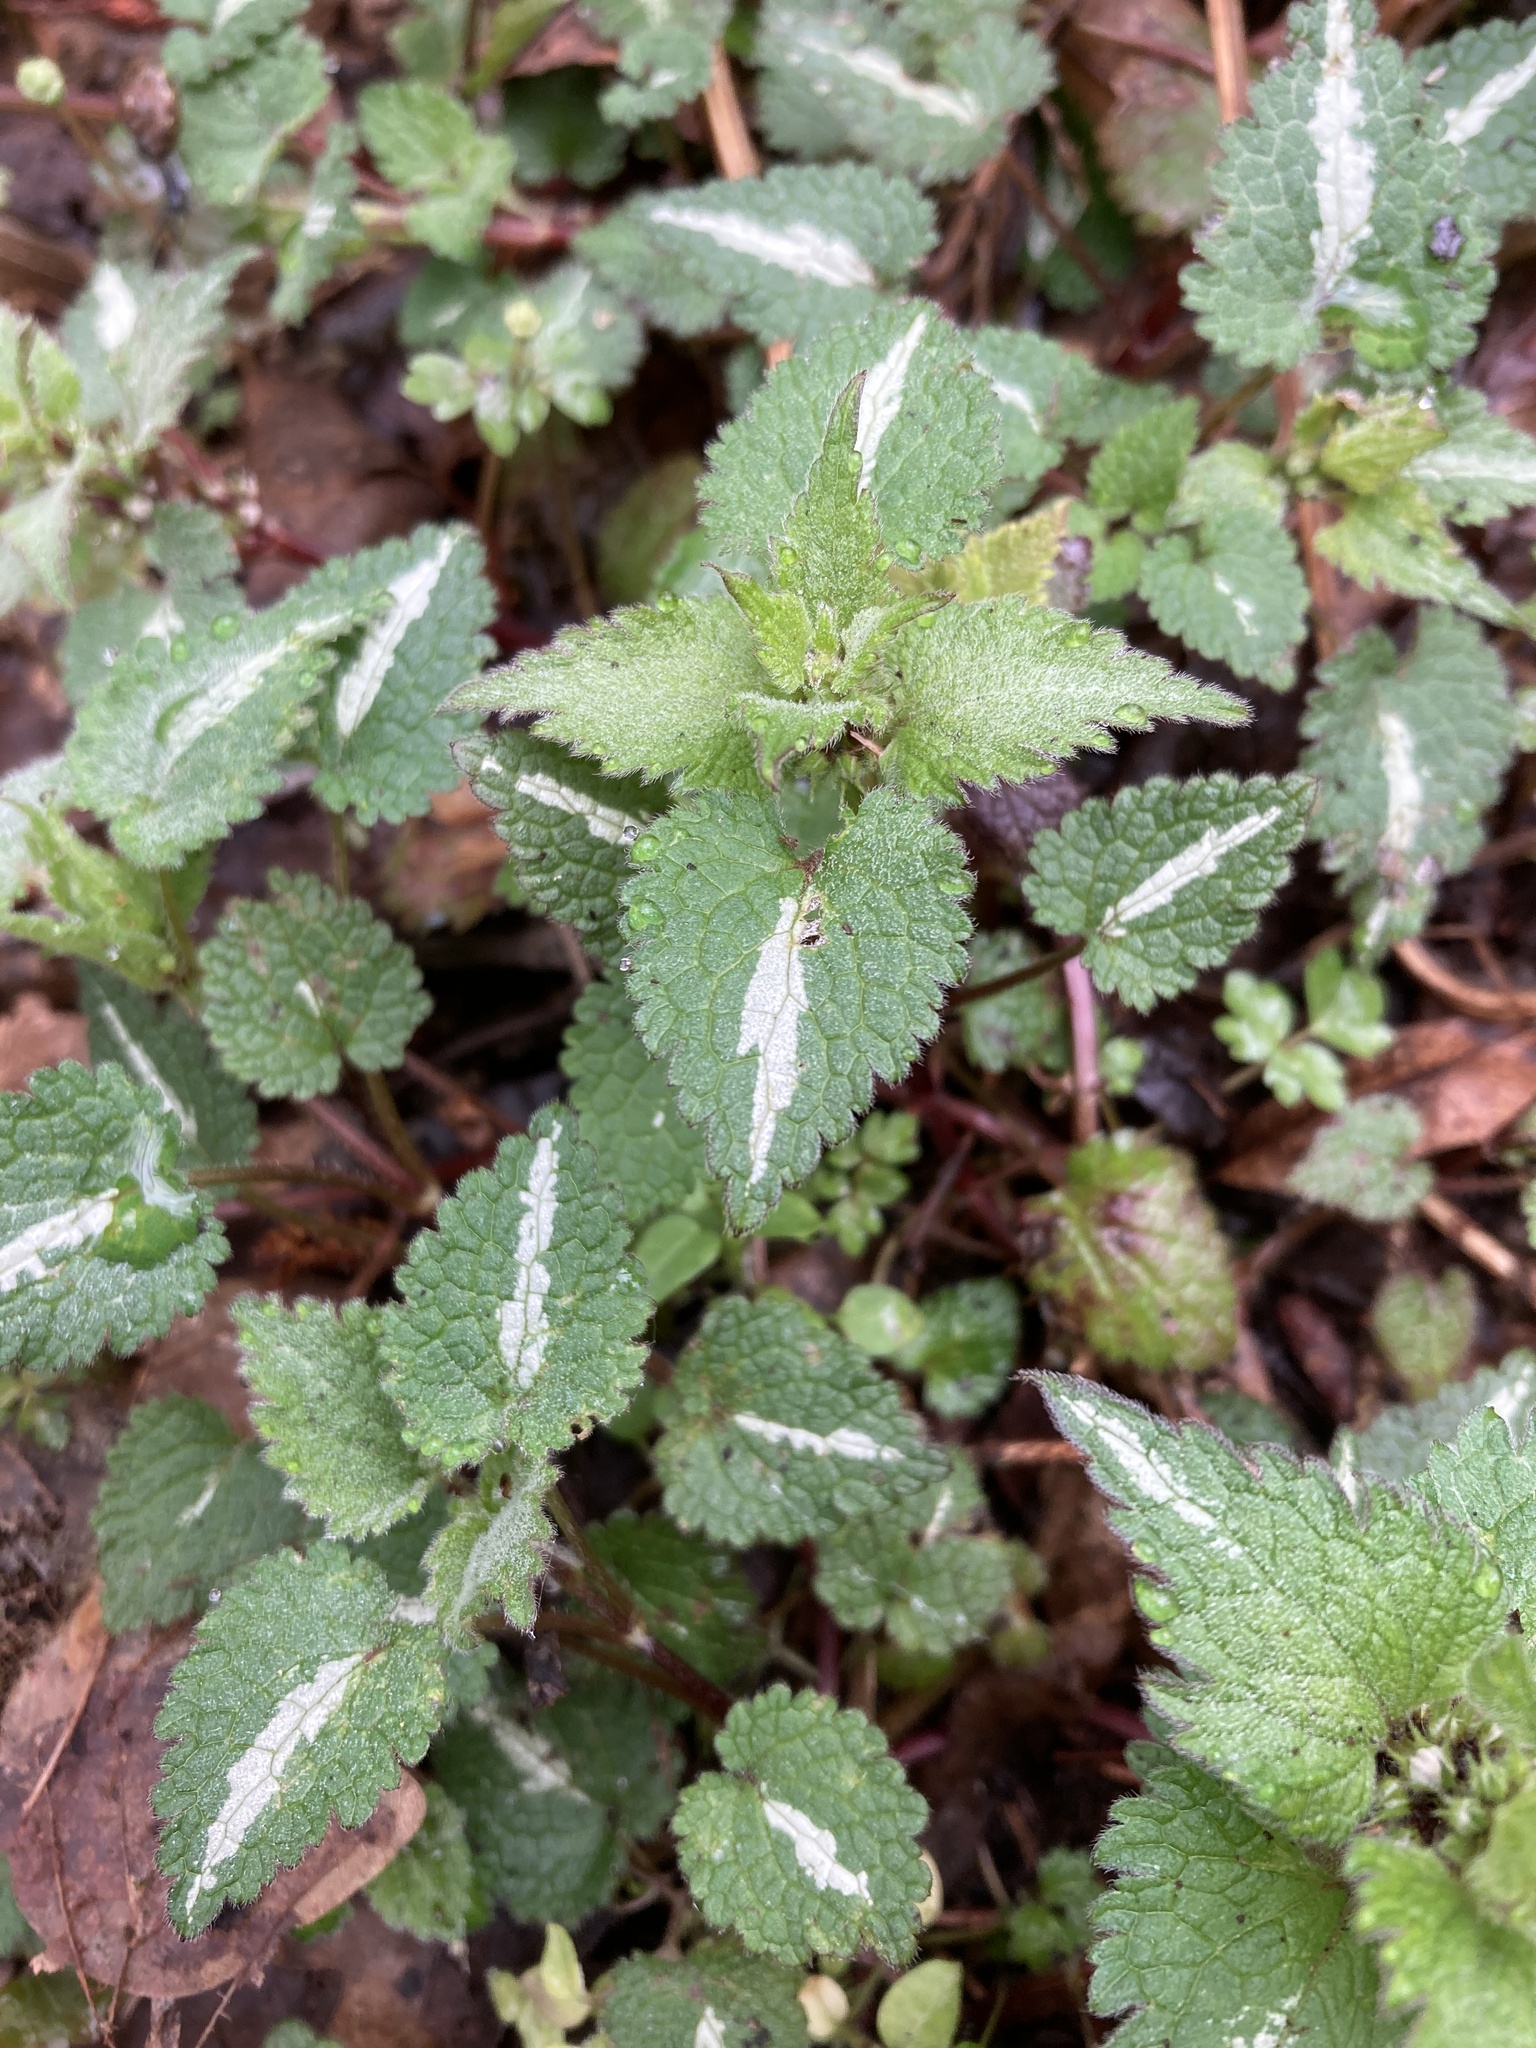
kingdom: Plantae
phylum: Tracheophyta
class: Magnoliopsida
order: Lamiales
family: Lamiaceae
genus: Lamium
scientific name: Lamium maculatum
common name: Spotted dead-nettle
